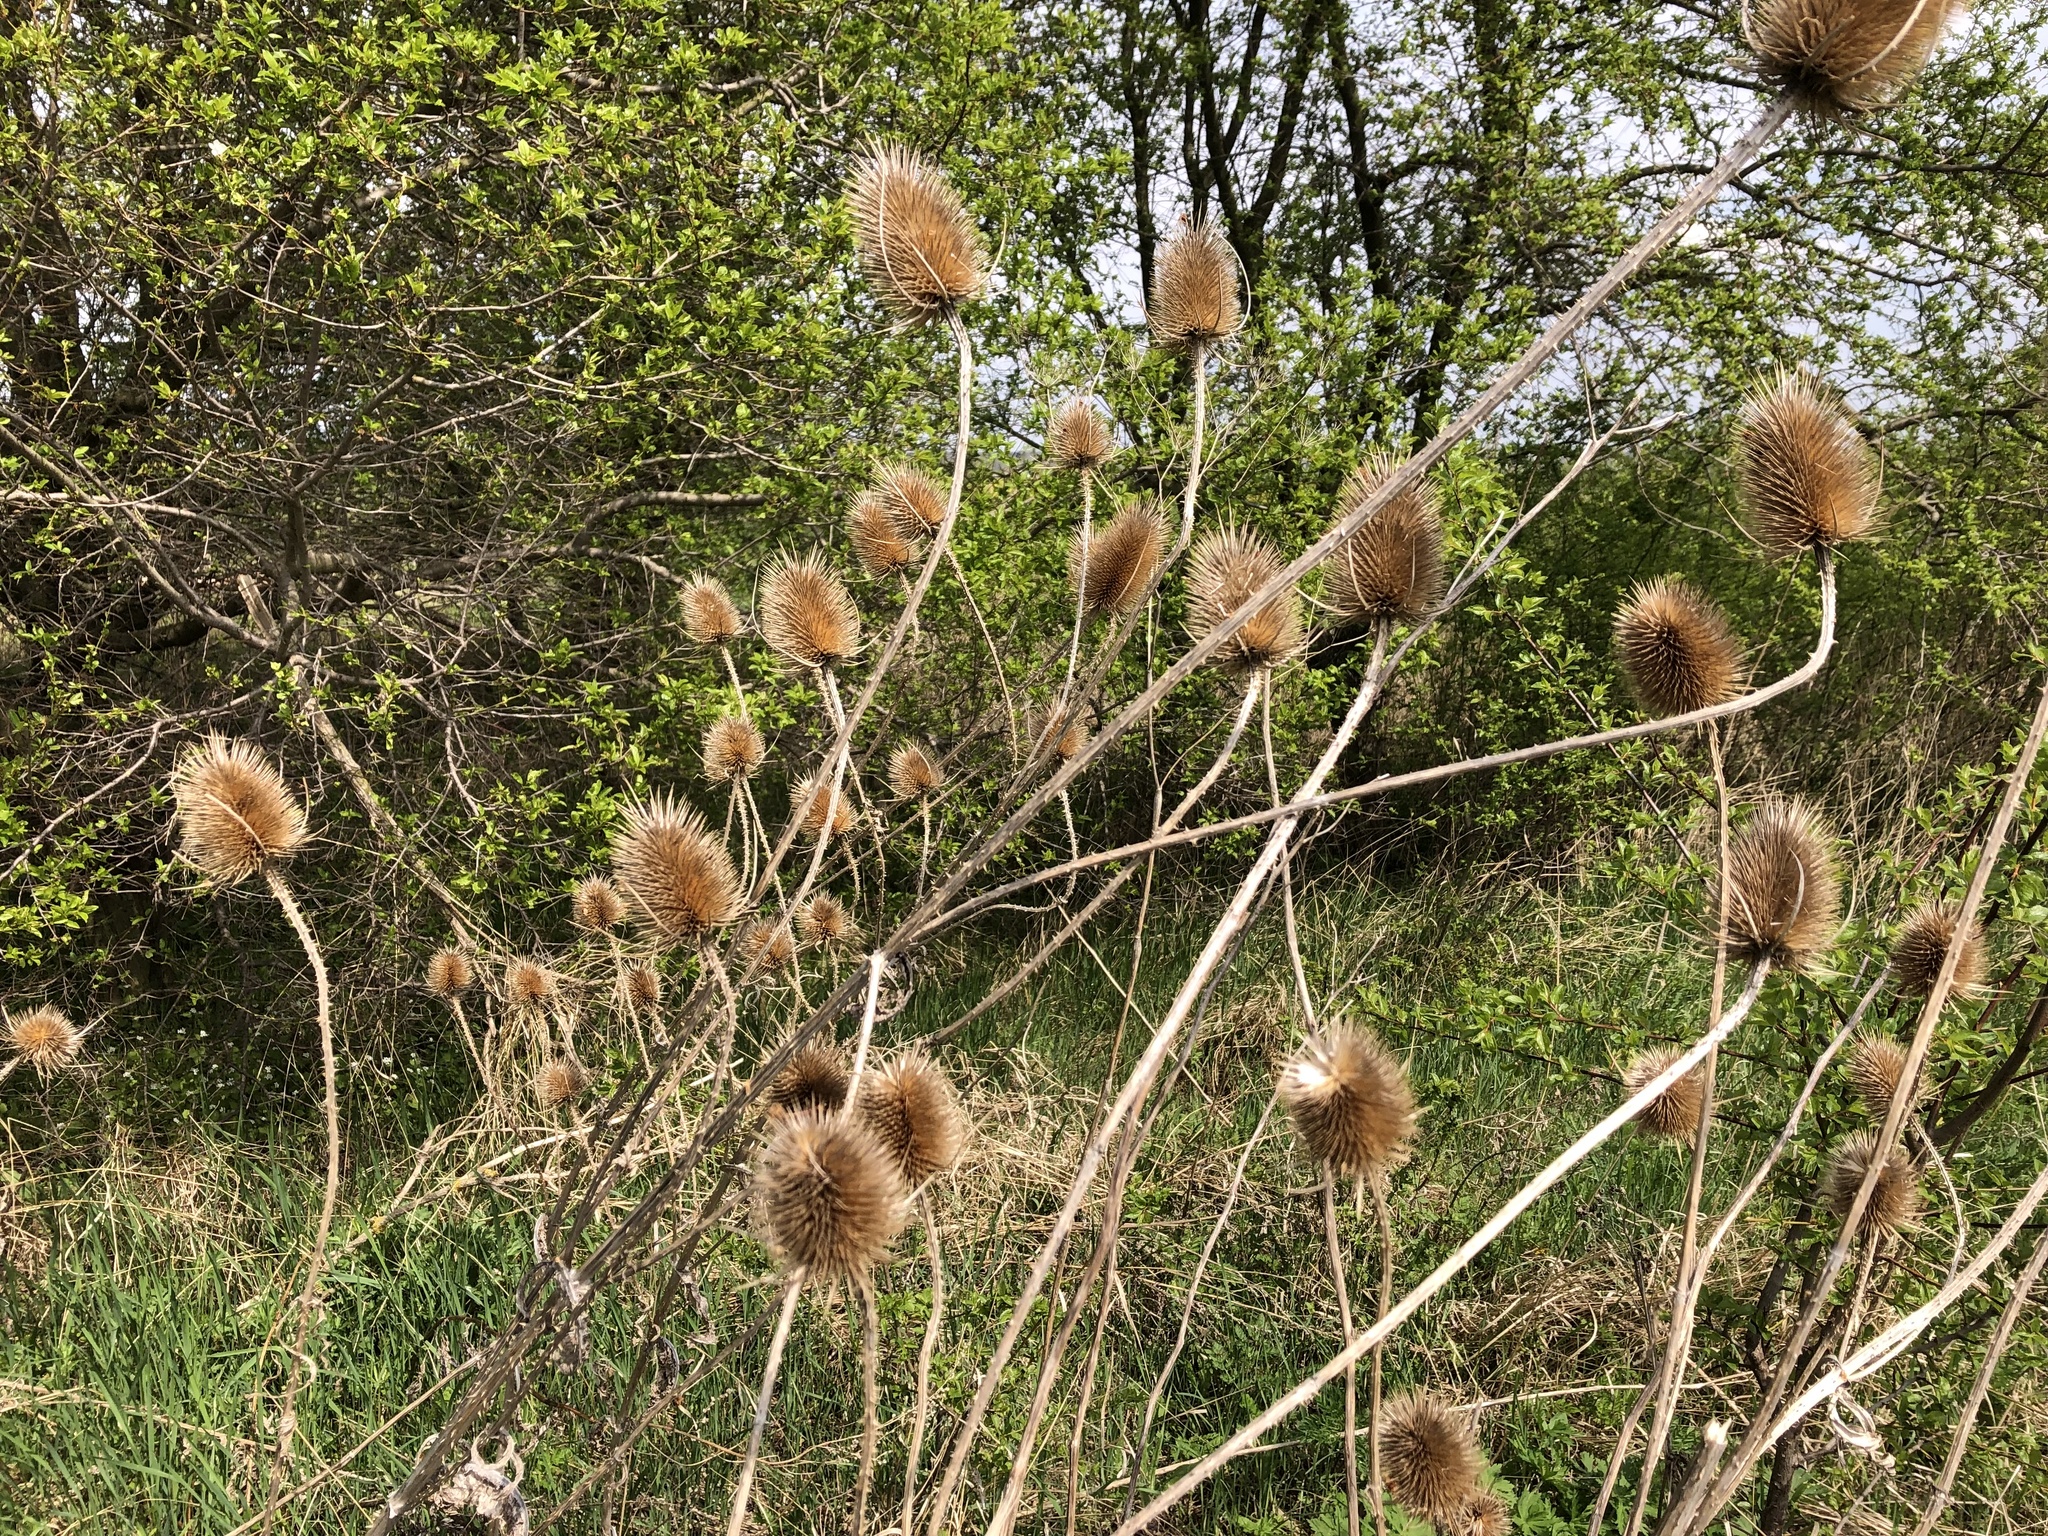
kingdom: Plantae
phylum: Tracheophyta
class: Magnoliopsida
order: Dipsacales
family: Caprifoliaceae
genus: Dipsacus
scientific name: Dipsacus fullonum
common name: Teasel
